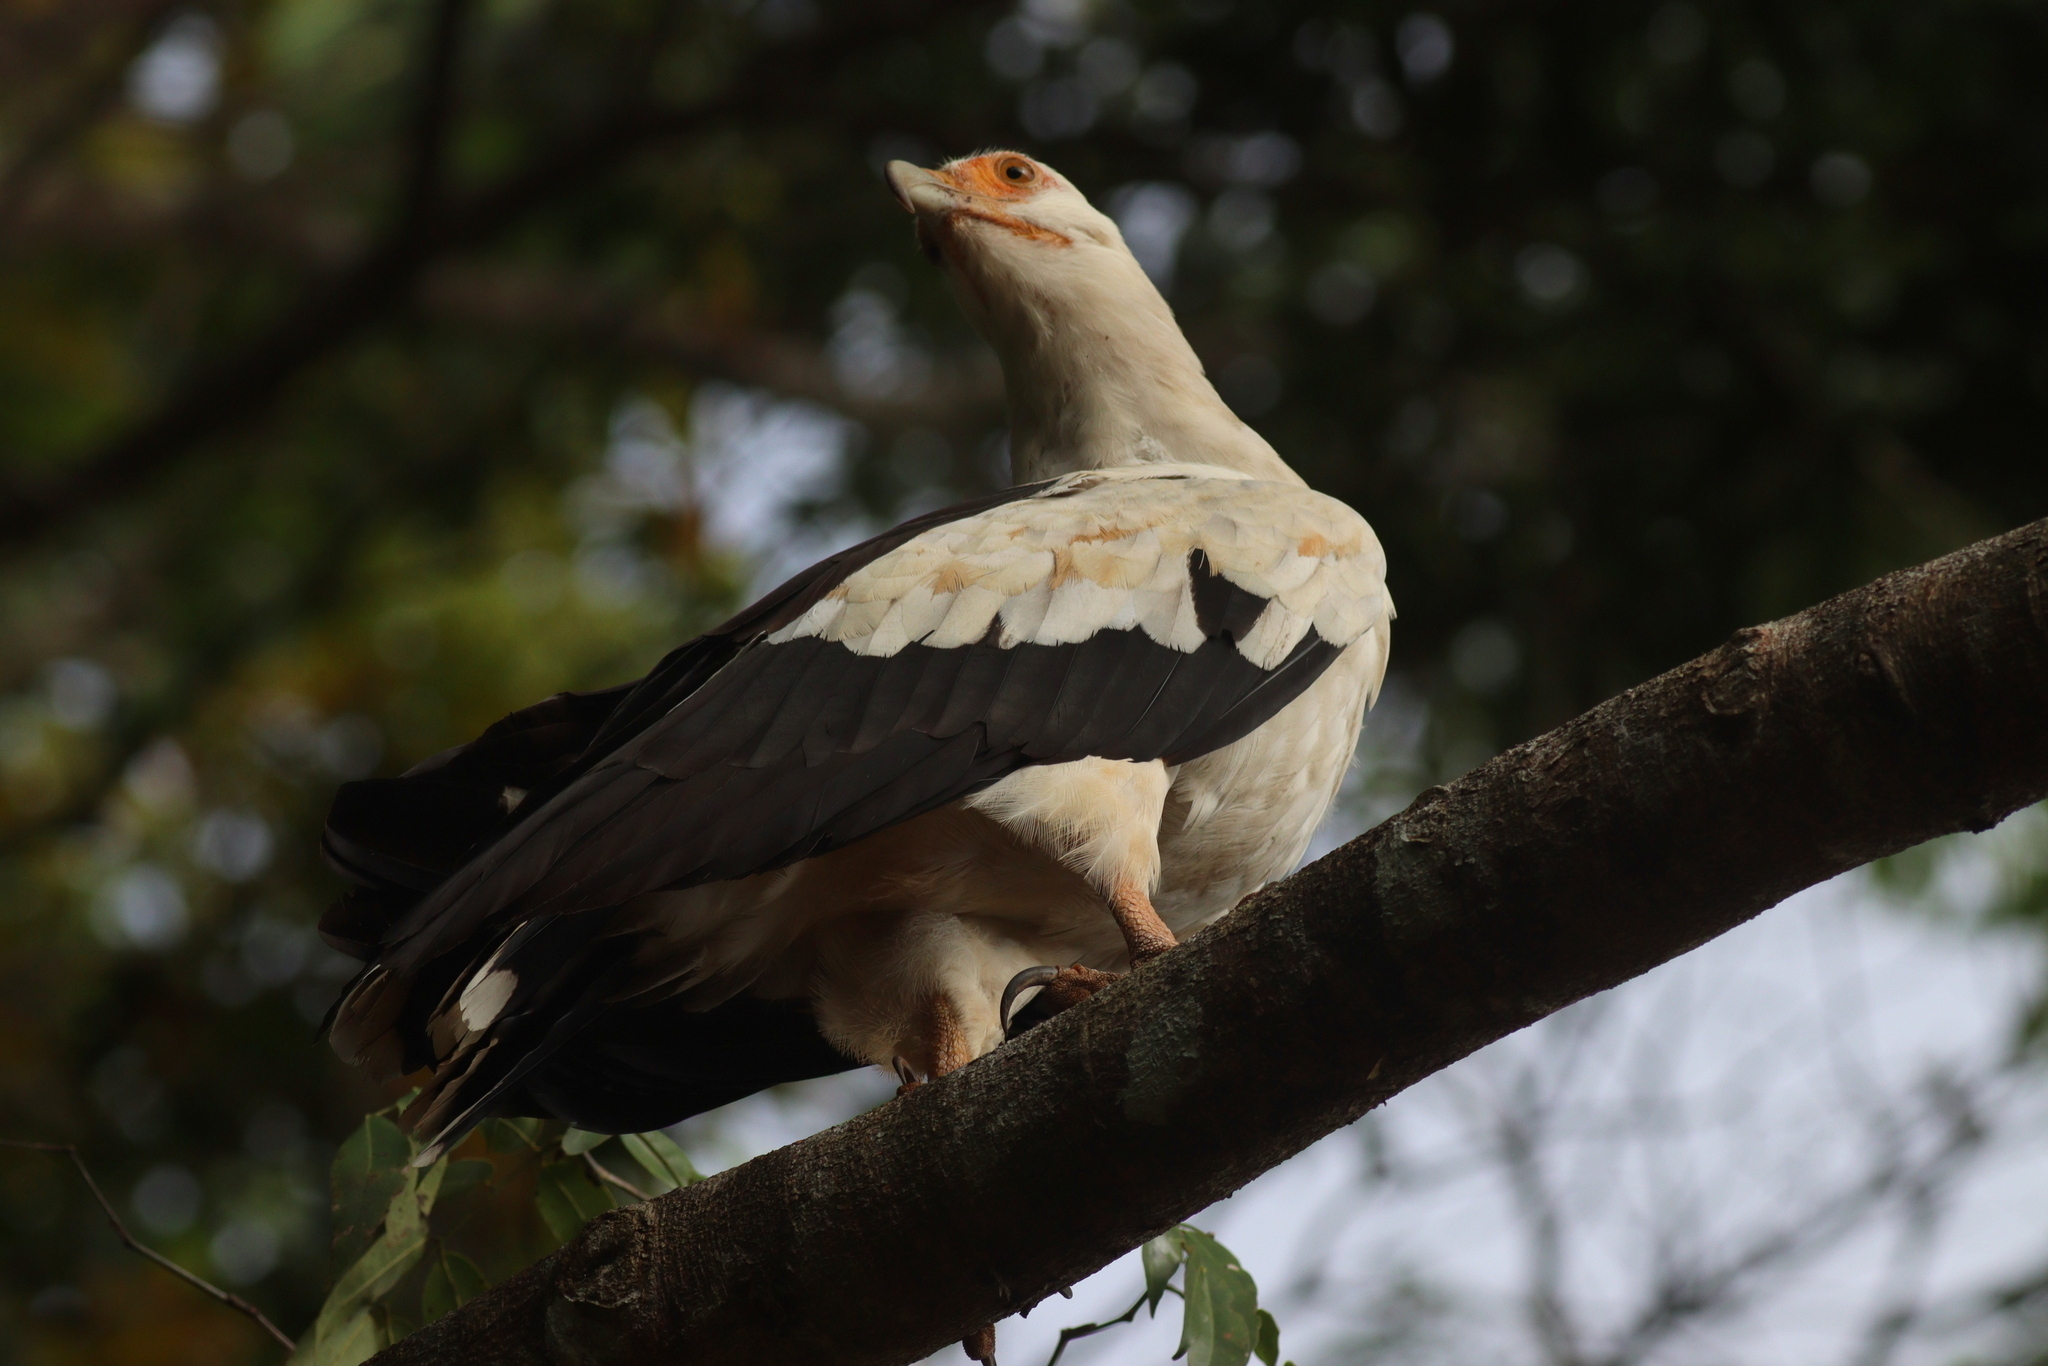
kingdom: Animalia
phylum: Chordata
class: Aves
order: Accipitriformes
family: Accipitridae
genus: Gypohierax
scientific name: Gypohierax angolensis
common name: Palm-nut vulture
